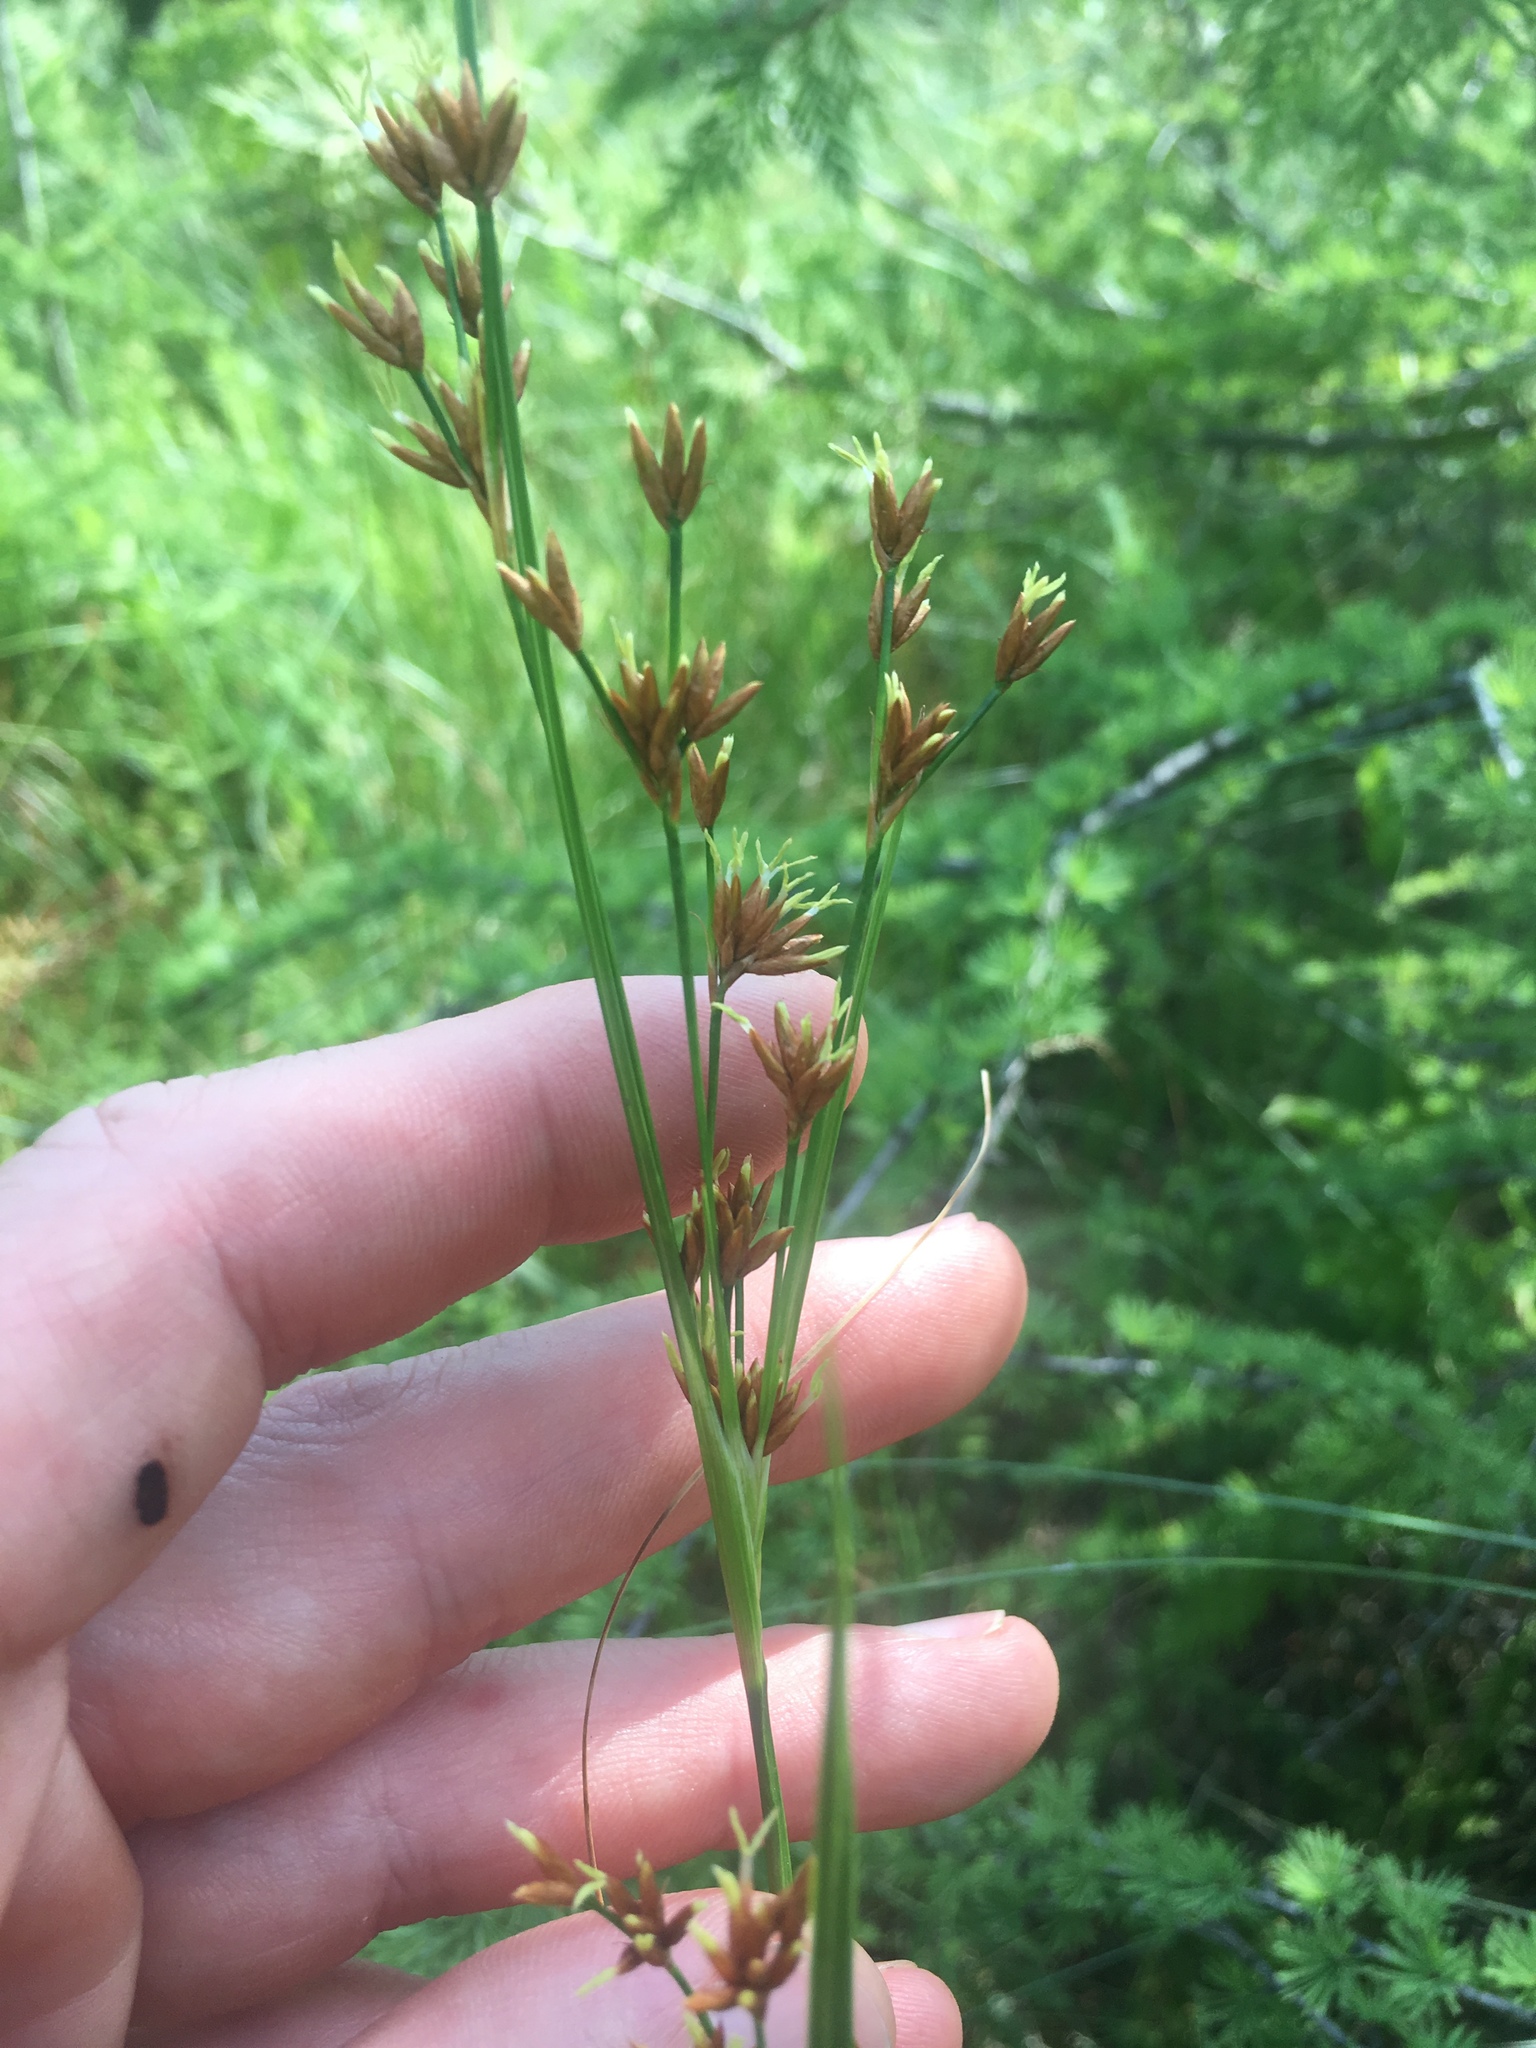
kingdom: Plantae
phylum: Tracheophyta
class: Liliopsida
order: Poales
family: Cyperaceae
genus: Cladium
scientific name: Cladium mariscoides
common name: Smooth sawgrass
